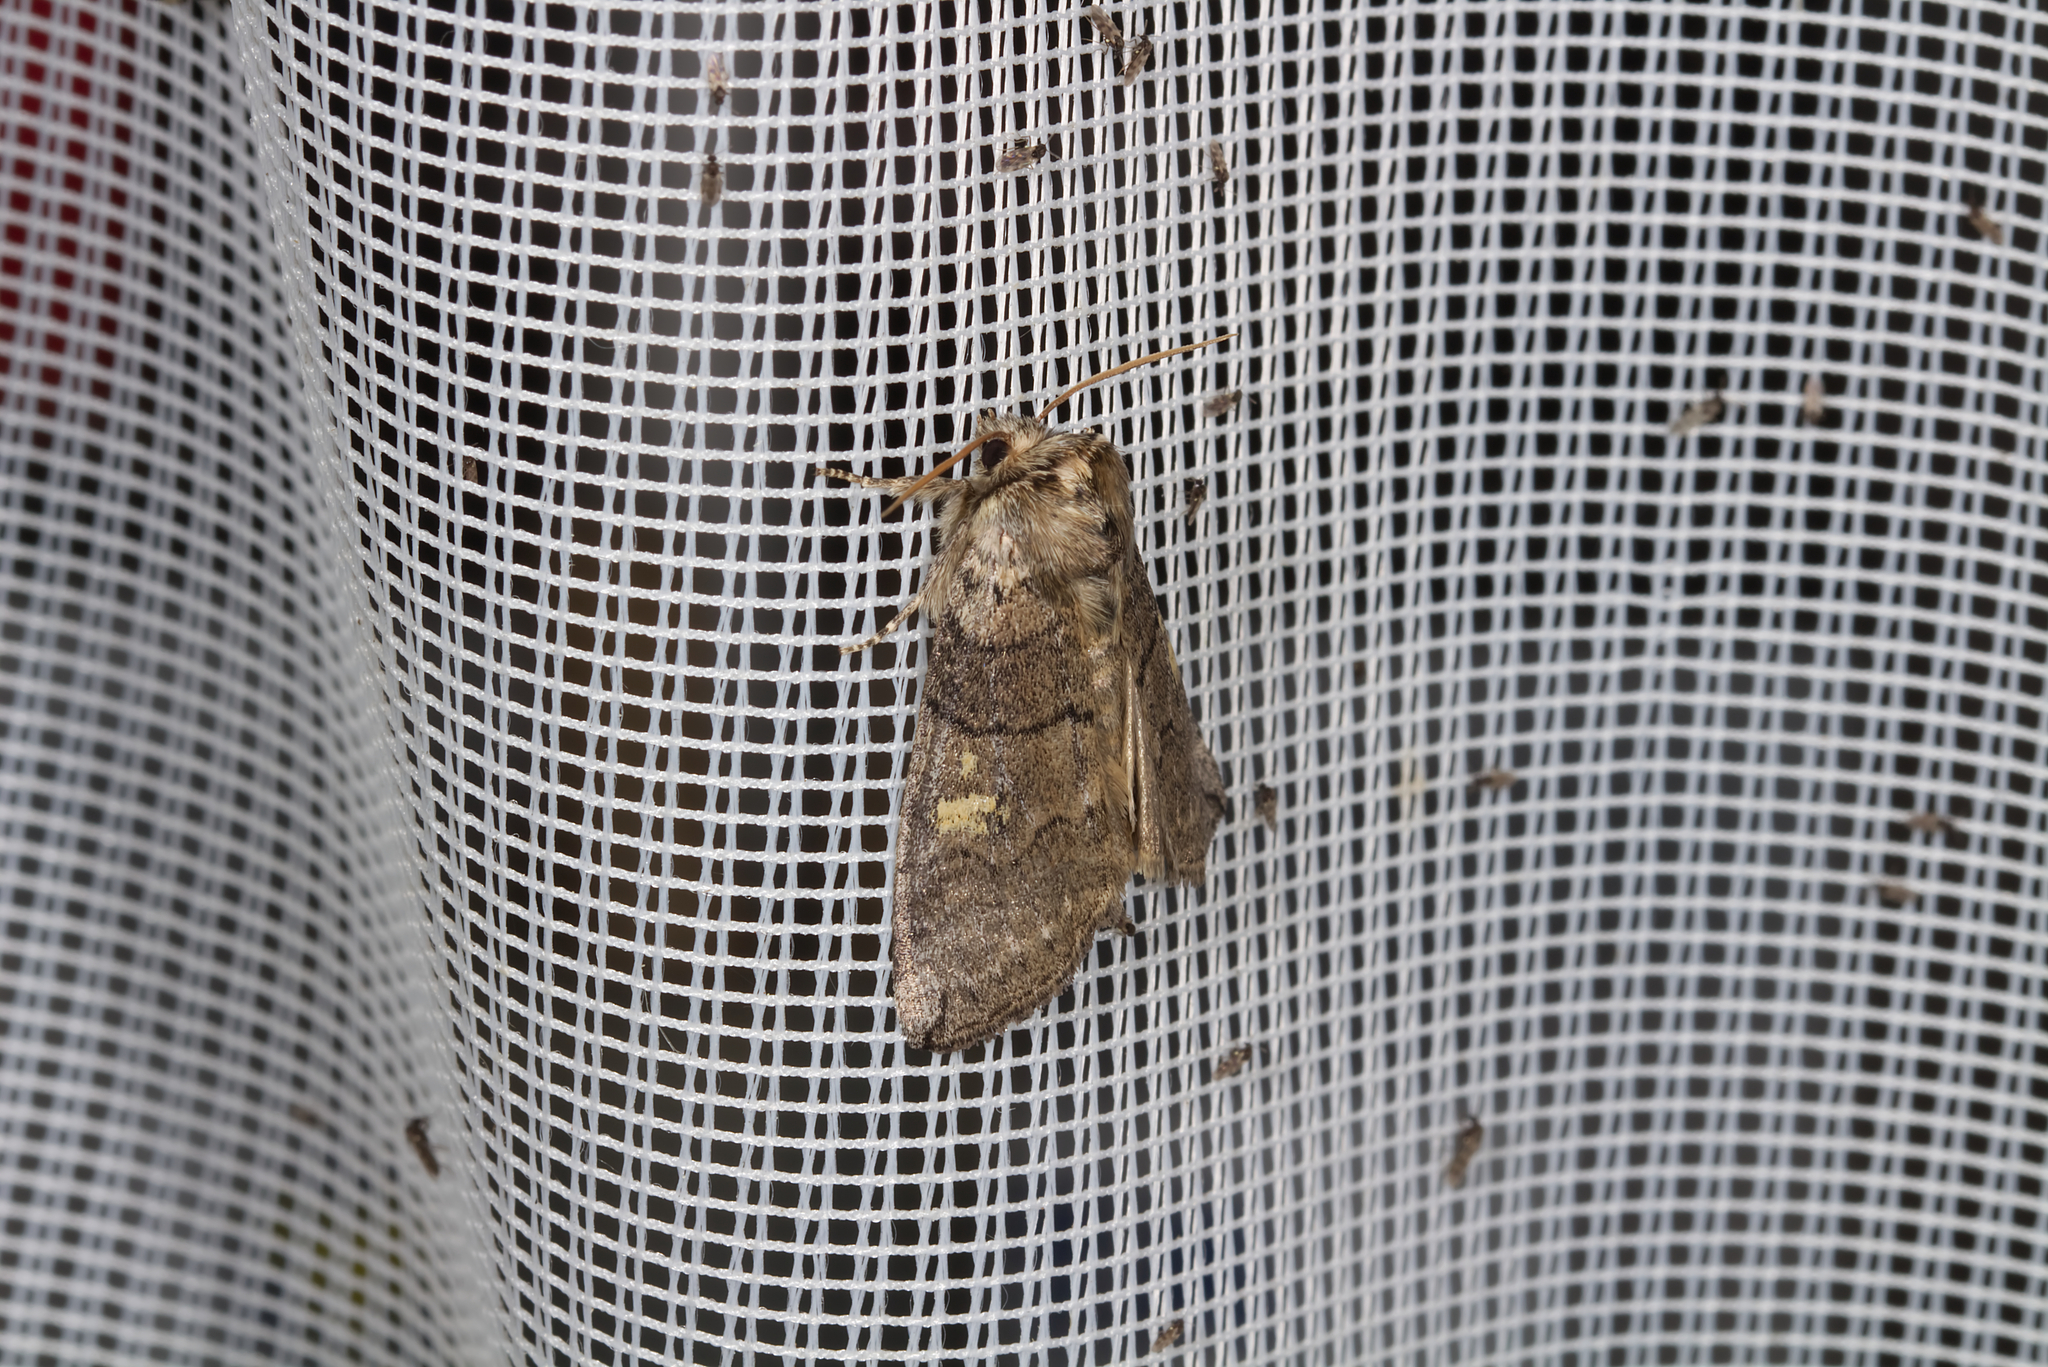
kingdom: Animalia
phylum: Arthropoda
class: Insecta
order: Lepidoptera
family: Drepanidae
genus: Tethea
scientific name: Tethea or
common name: Poplar lutestring
